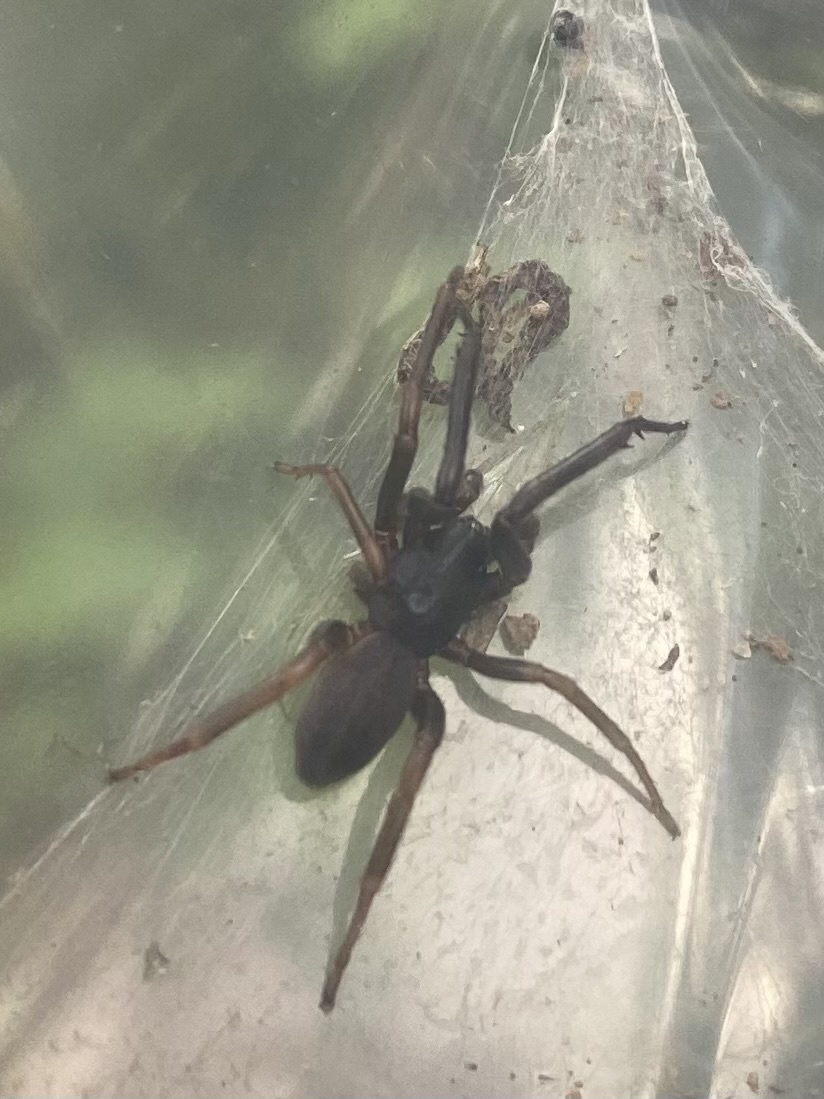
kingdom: Animalia
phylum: Arthropoda
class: Arachnida
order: Araneae
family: Segestriidae
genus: Ariadna
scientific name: Ariadna bicolor
